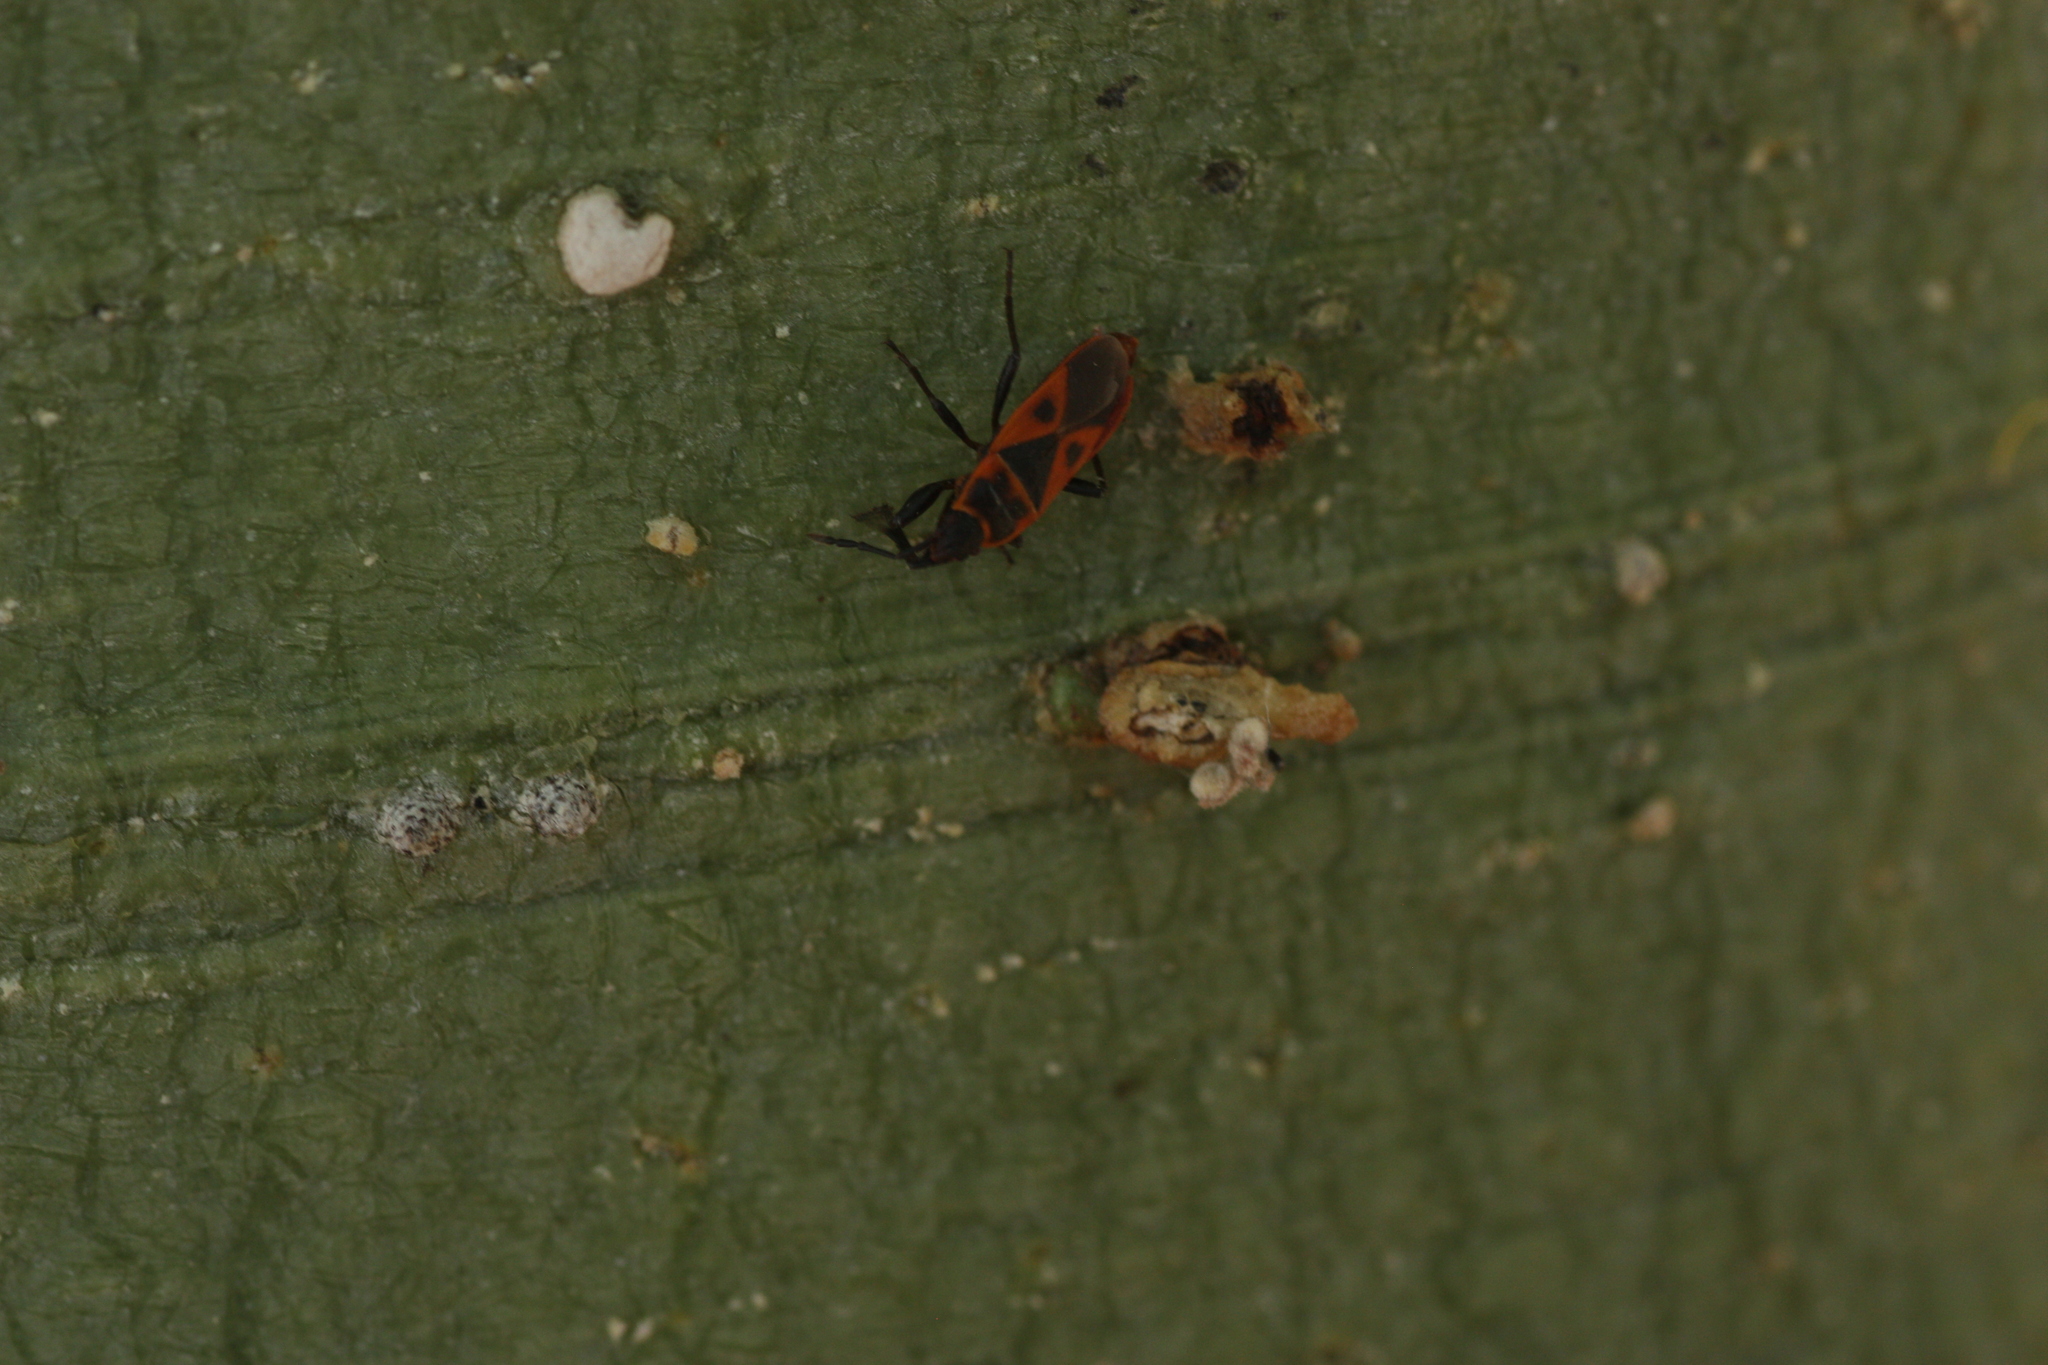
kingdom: Animalia
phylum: Arthropoda
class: Insecta
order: Hemiptera
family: Pyrrhocoridae
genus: Scantius
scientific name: Scantius aegyptius
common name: Red bug
